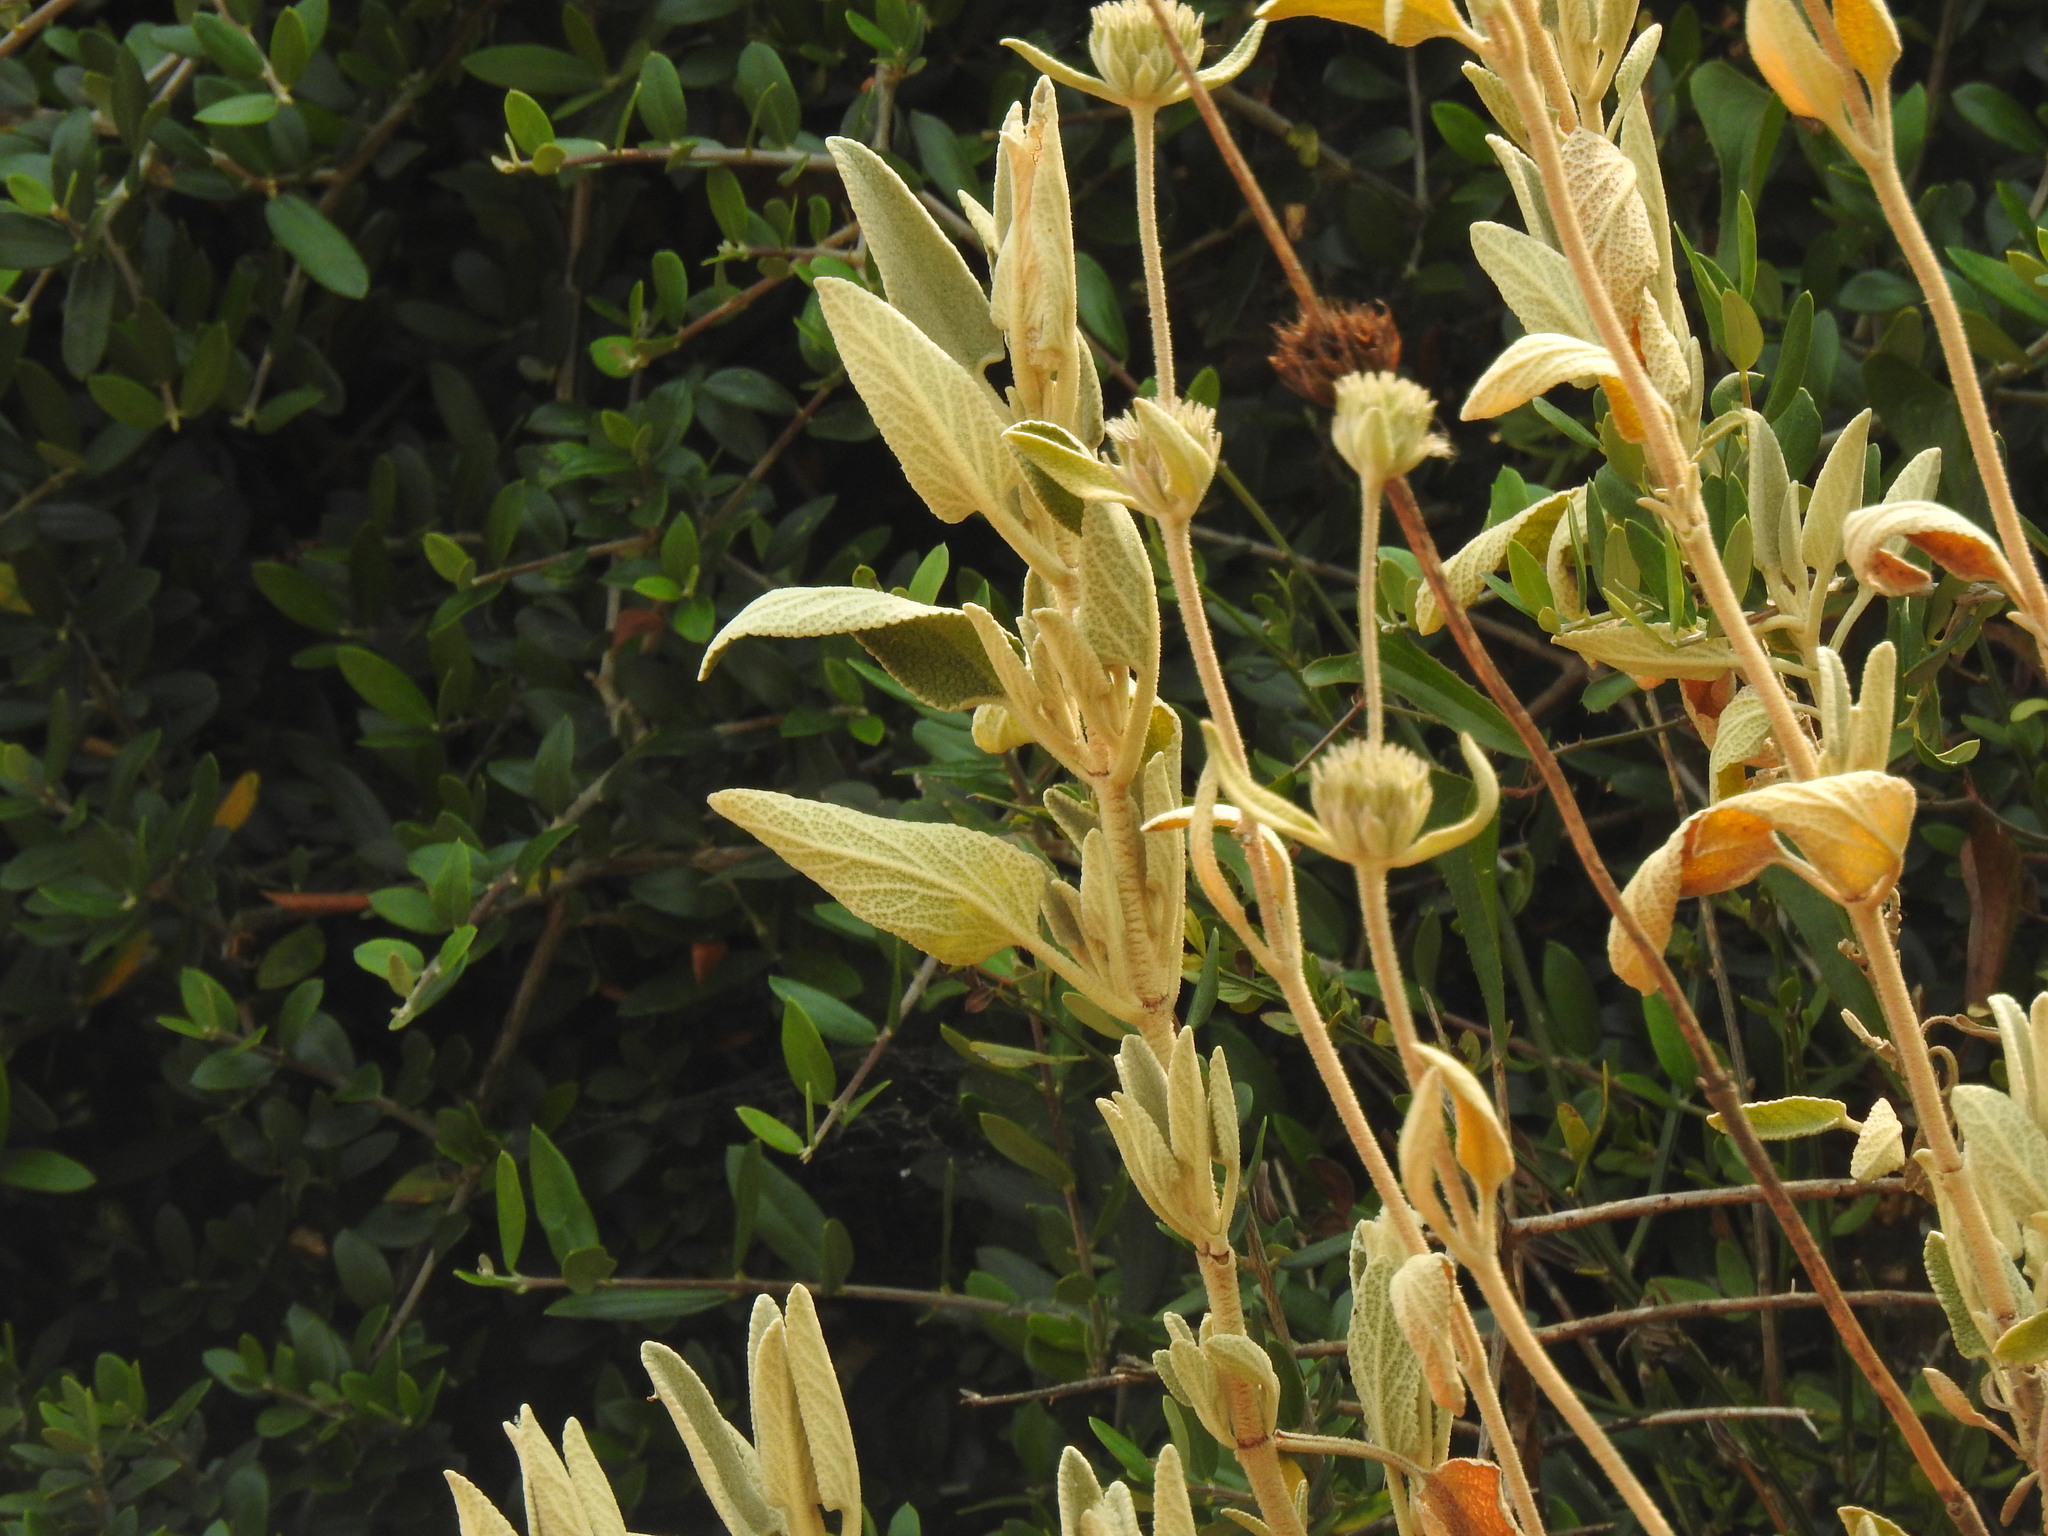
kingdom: Plantae
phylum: Tracheophyta
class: Magnoliopsida
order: Lamiales
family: Lamiaceae
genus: Phlomis
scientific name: Phlomis purpurea
